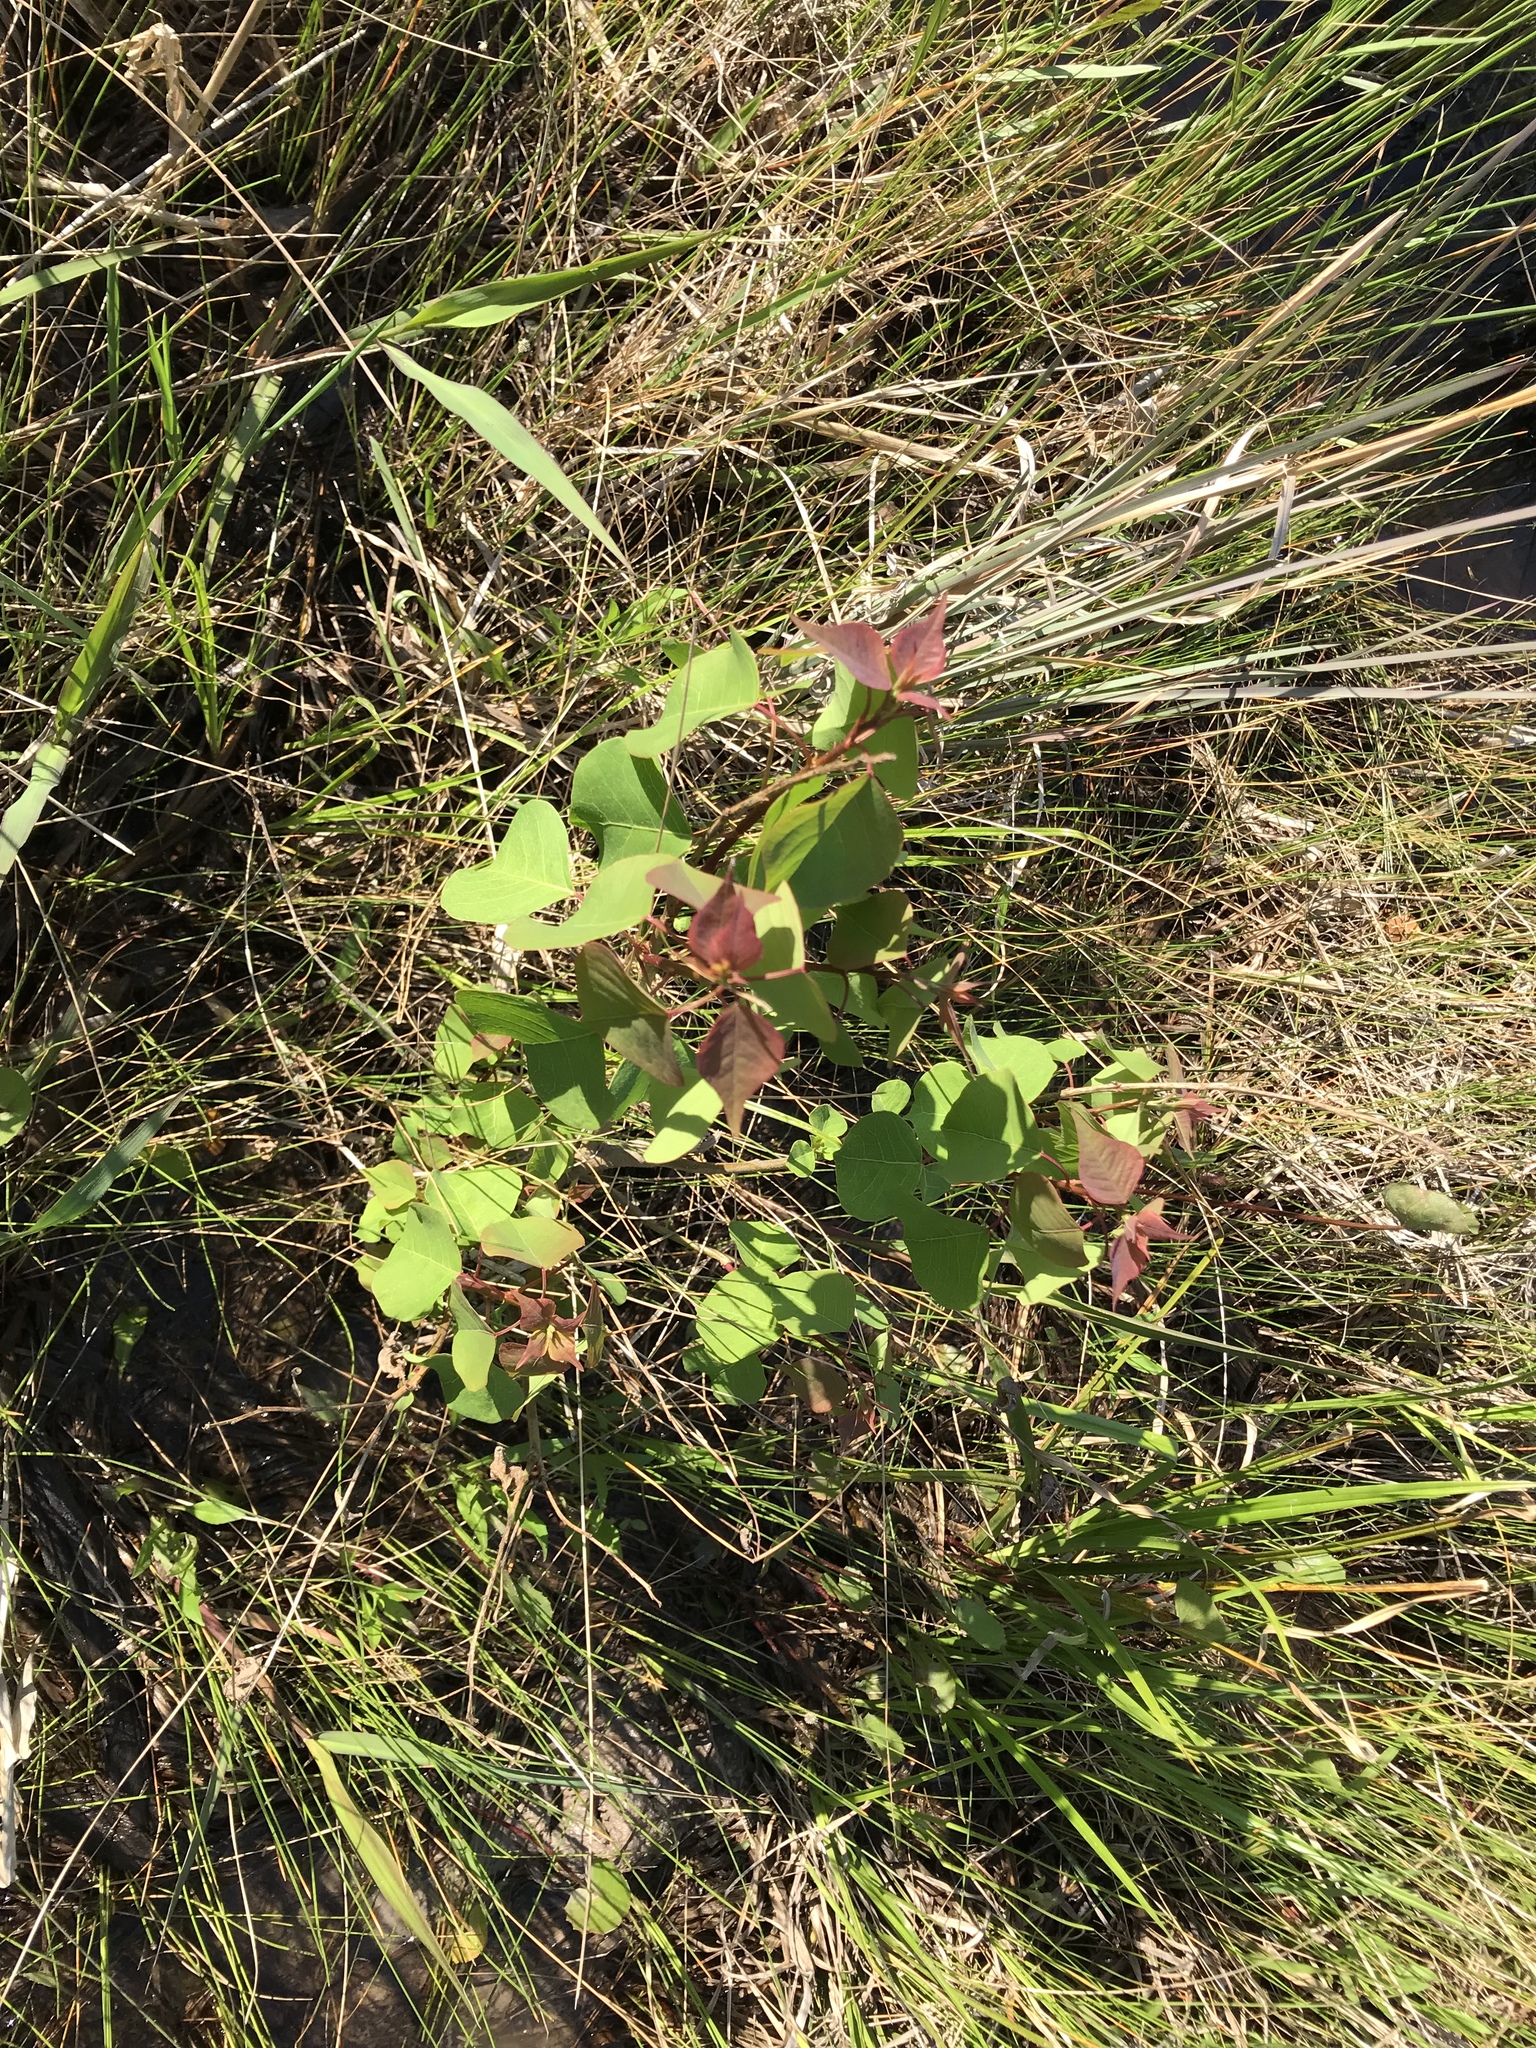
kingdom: Plantae
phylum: Tracheophyta
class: Magnoliopsida
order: Malpighiales
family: Euphorbiaceae
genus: Triadica
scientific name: Triadica sebifera
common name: Chinese tallow
